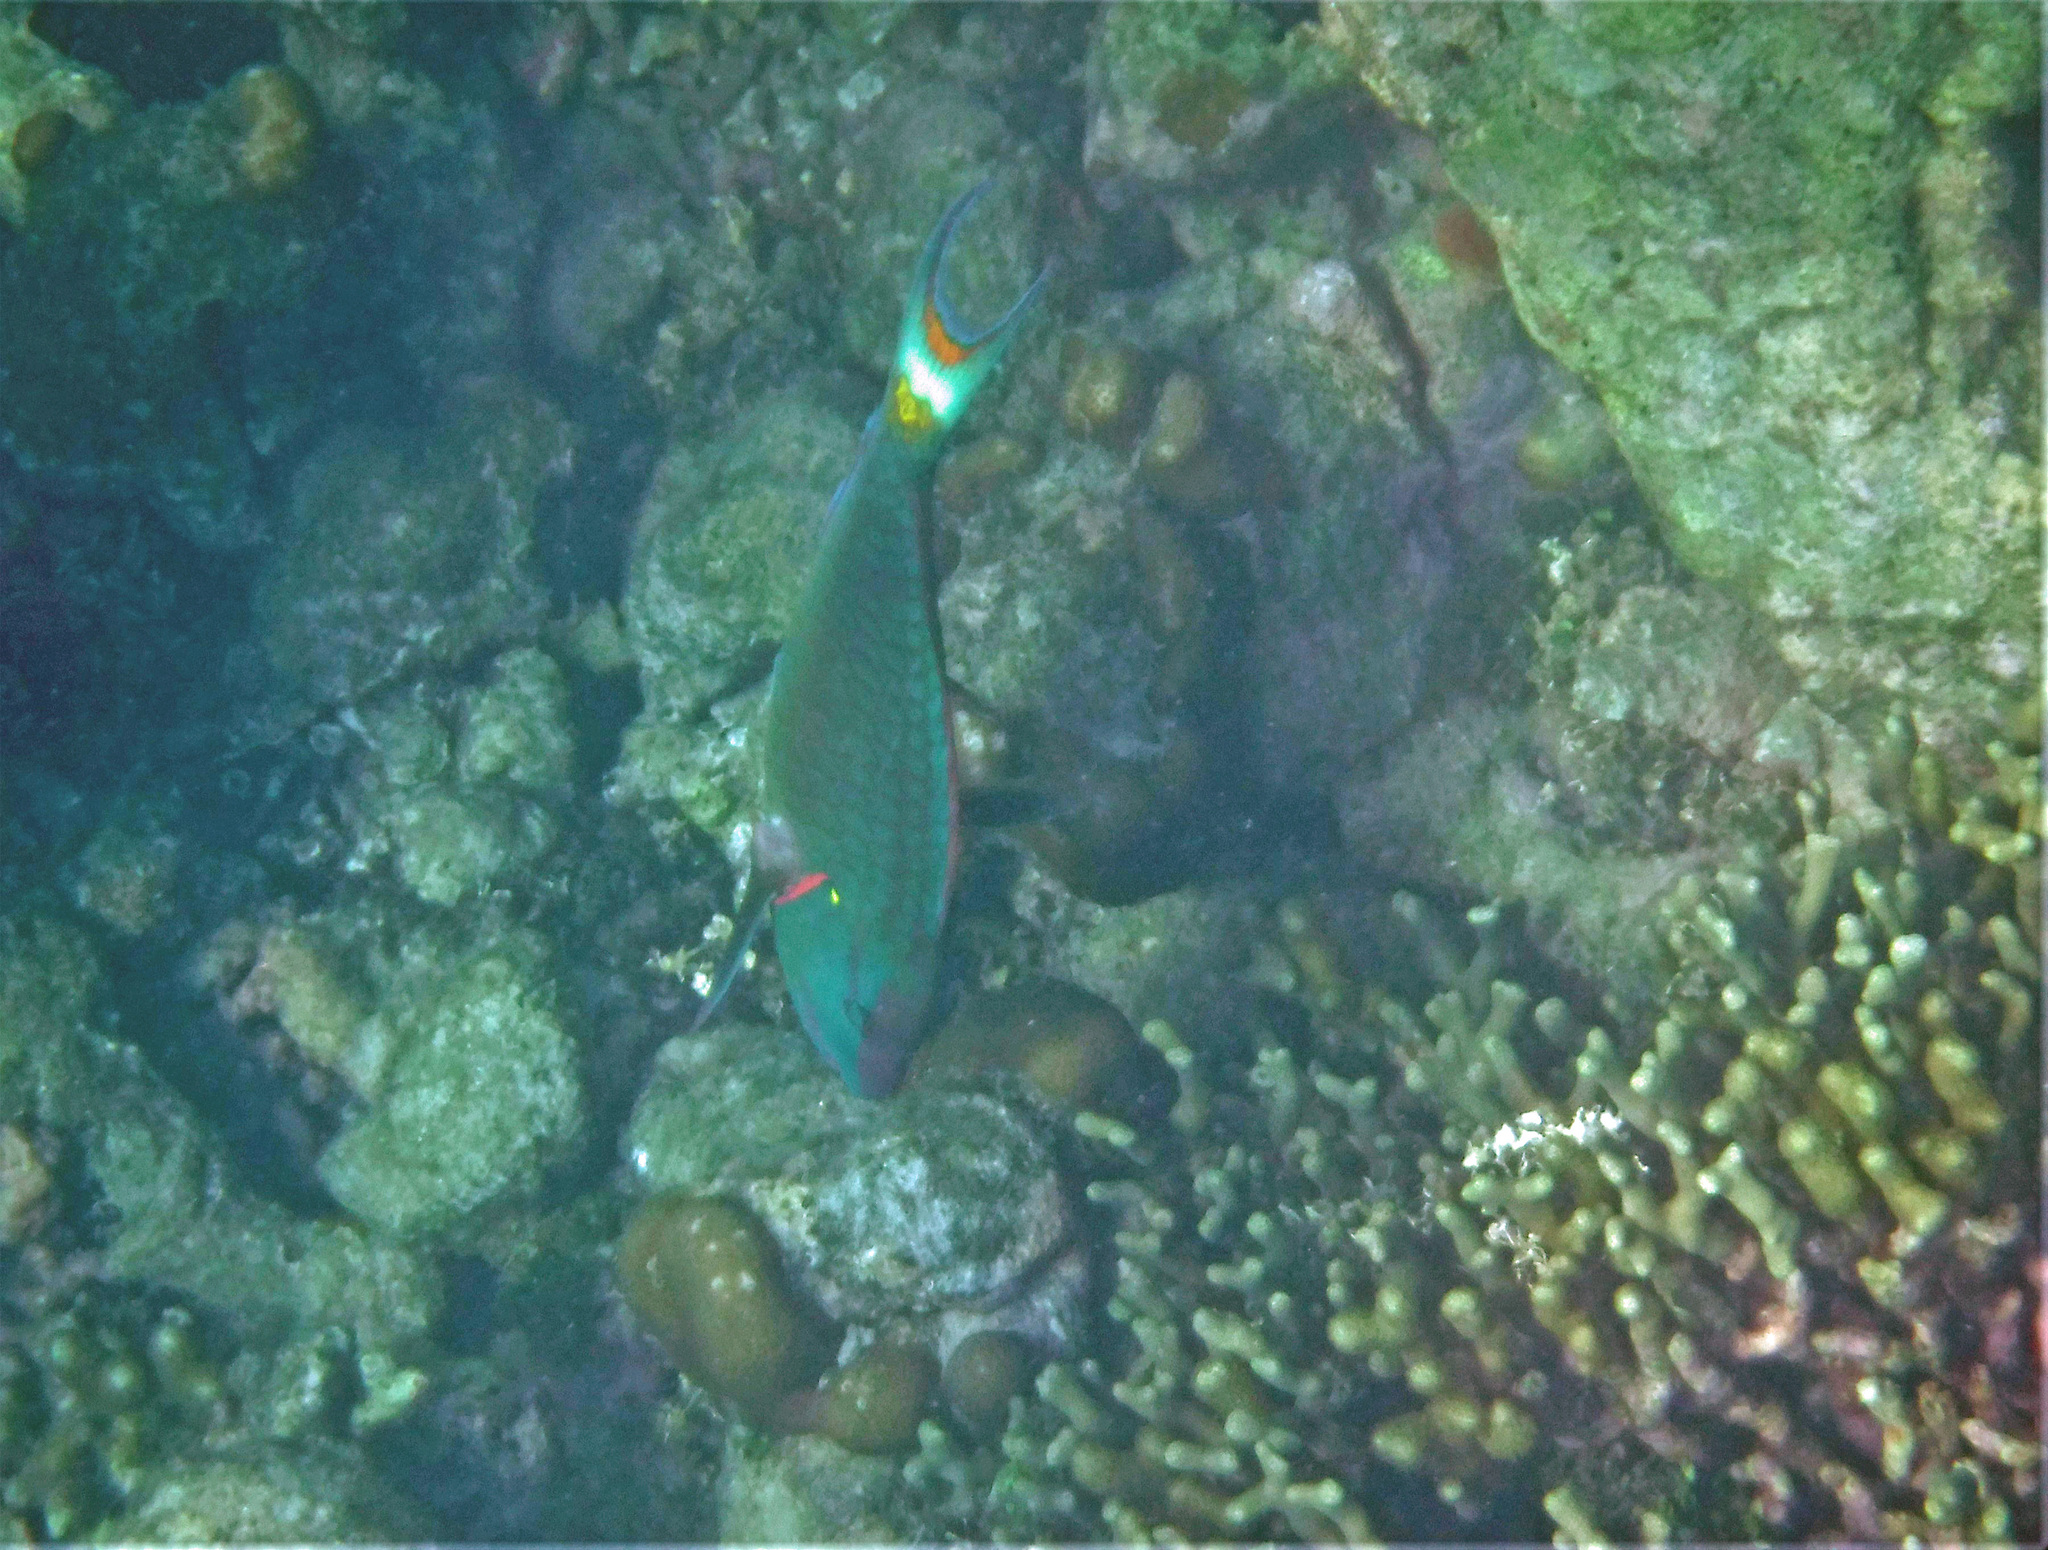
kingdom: Animalia
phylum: Chordata
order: Perciformes
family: Scaridae
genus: Sparisoma
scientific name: Sparisoma viride
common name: Stoplight parrotfish
